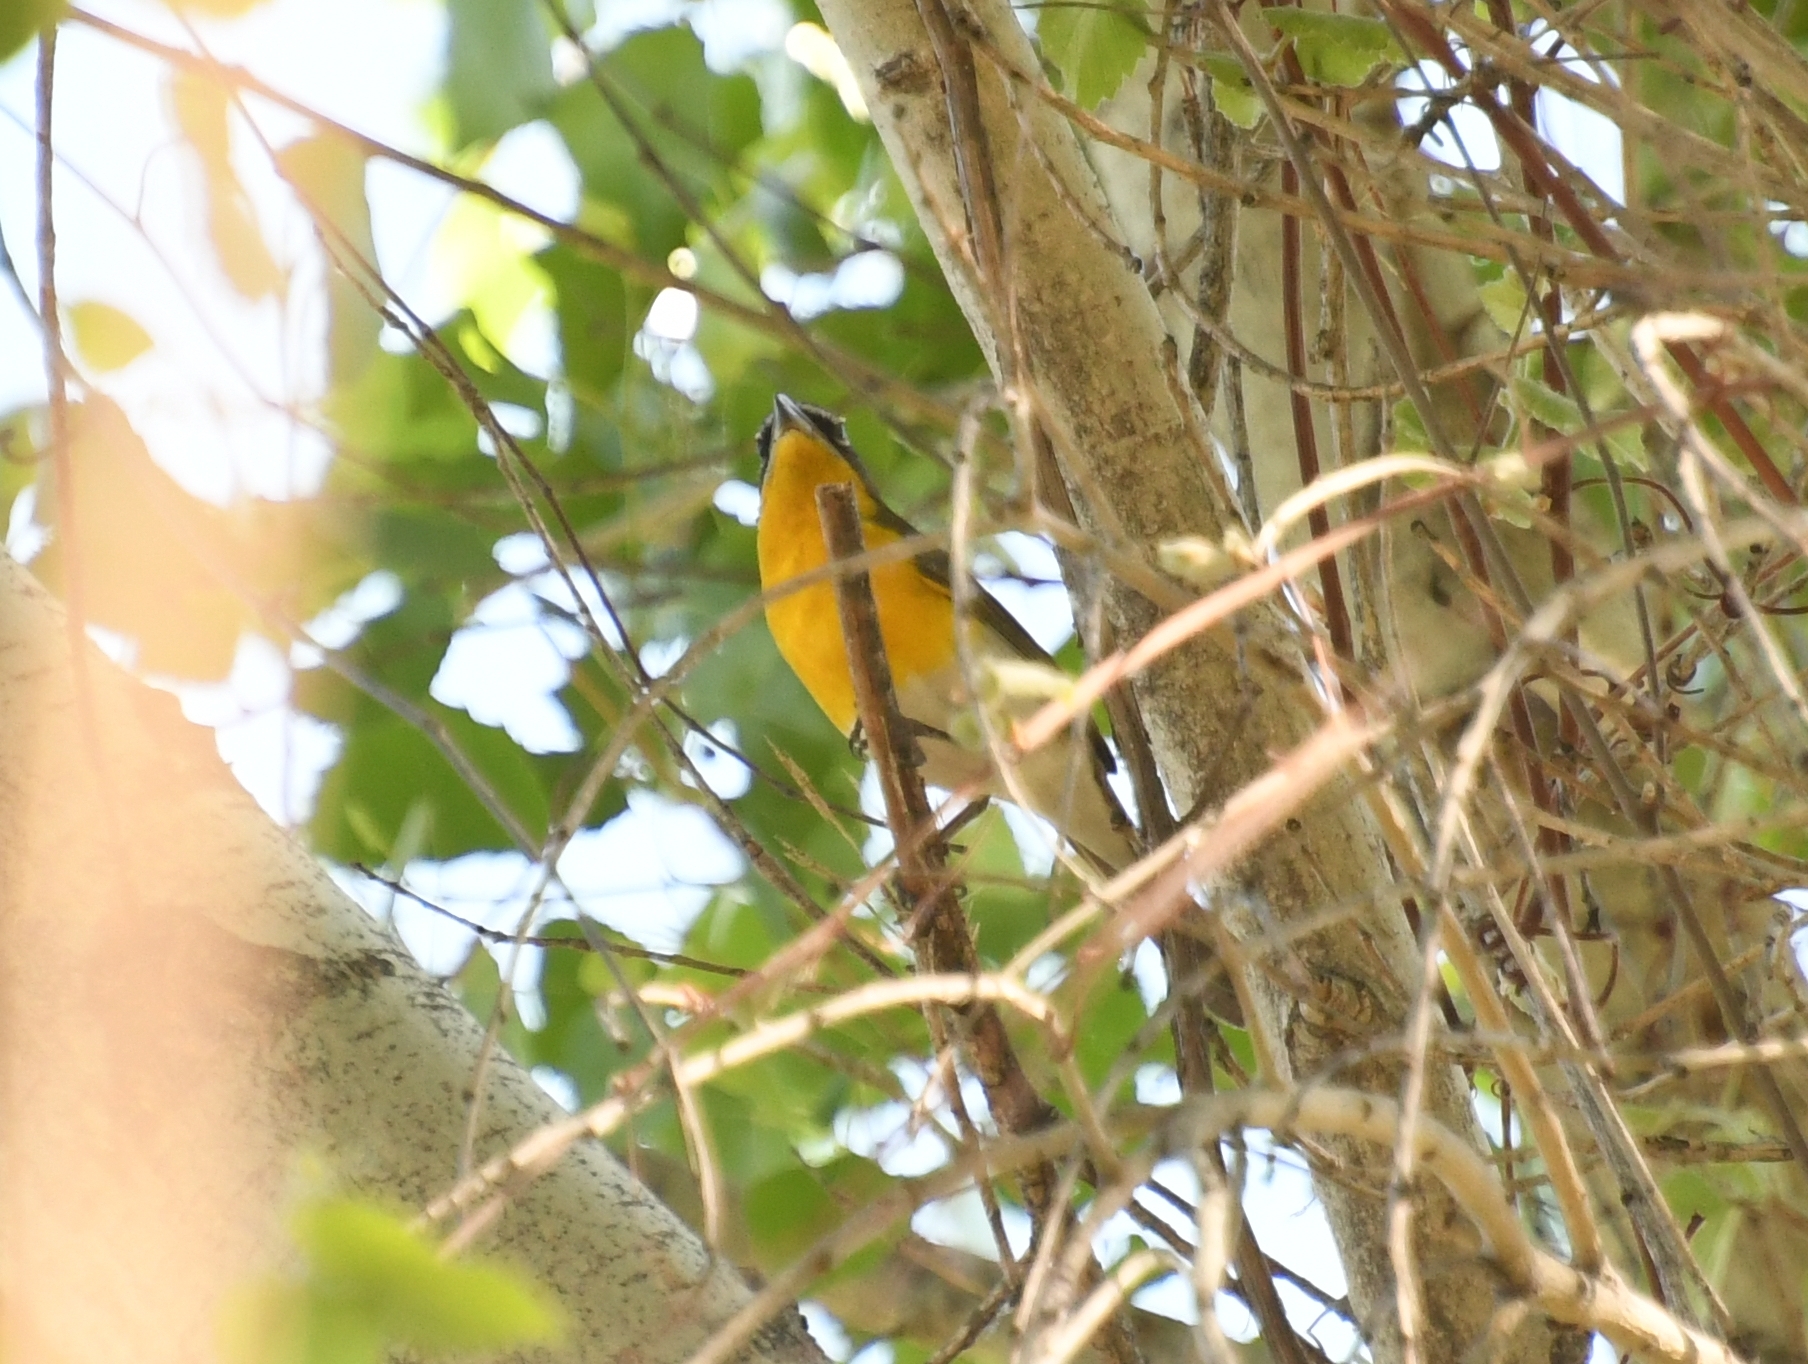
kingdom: Animalia
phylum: Chordata
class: Aves
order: Passeriformes
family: Parulidae
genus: Icteria
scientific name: Icteria virens
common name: Yellow-breasted chat
